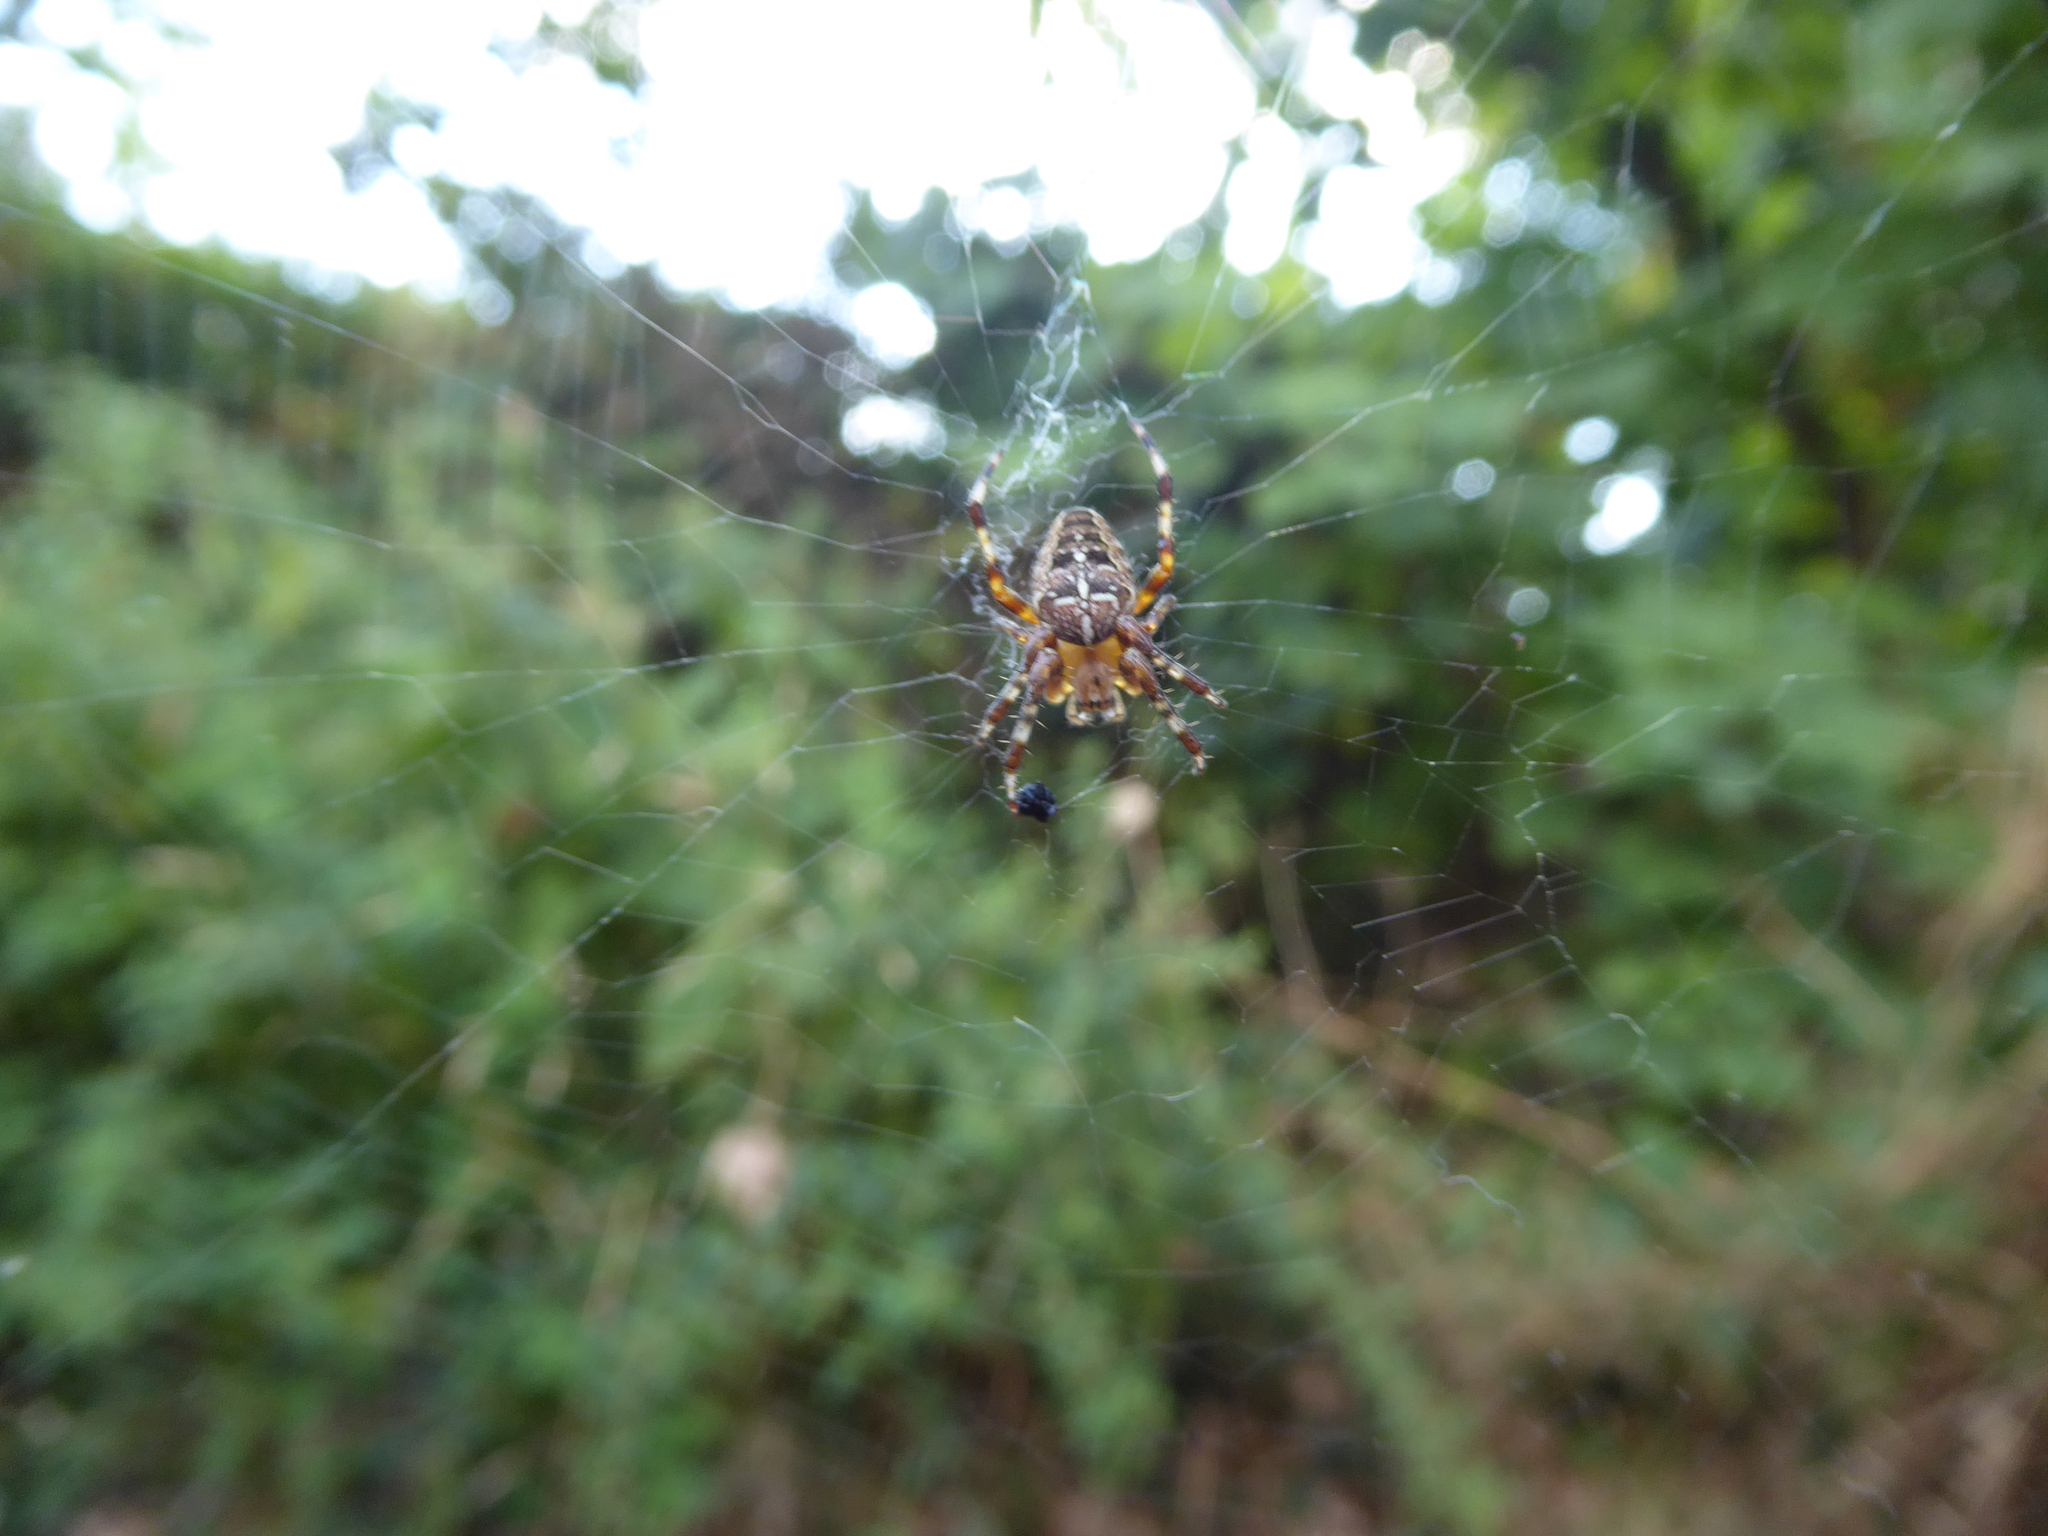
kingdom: Animalia
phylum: Arthropoda
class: Arachnida
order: Araneae
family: Araneidae
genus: Araneus
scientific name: Araneus diadematus
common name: Cross orbweaver
